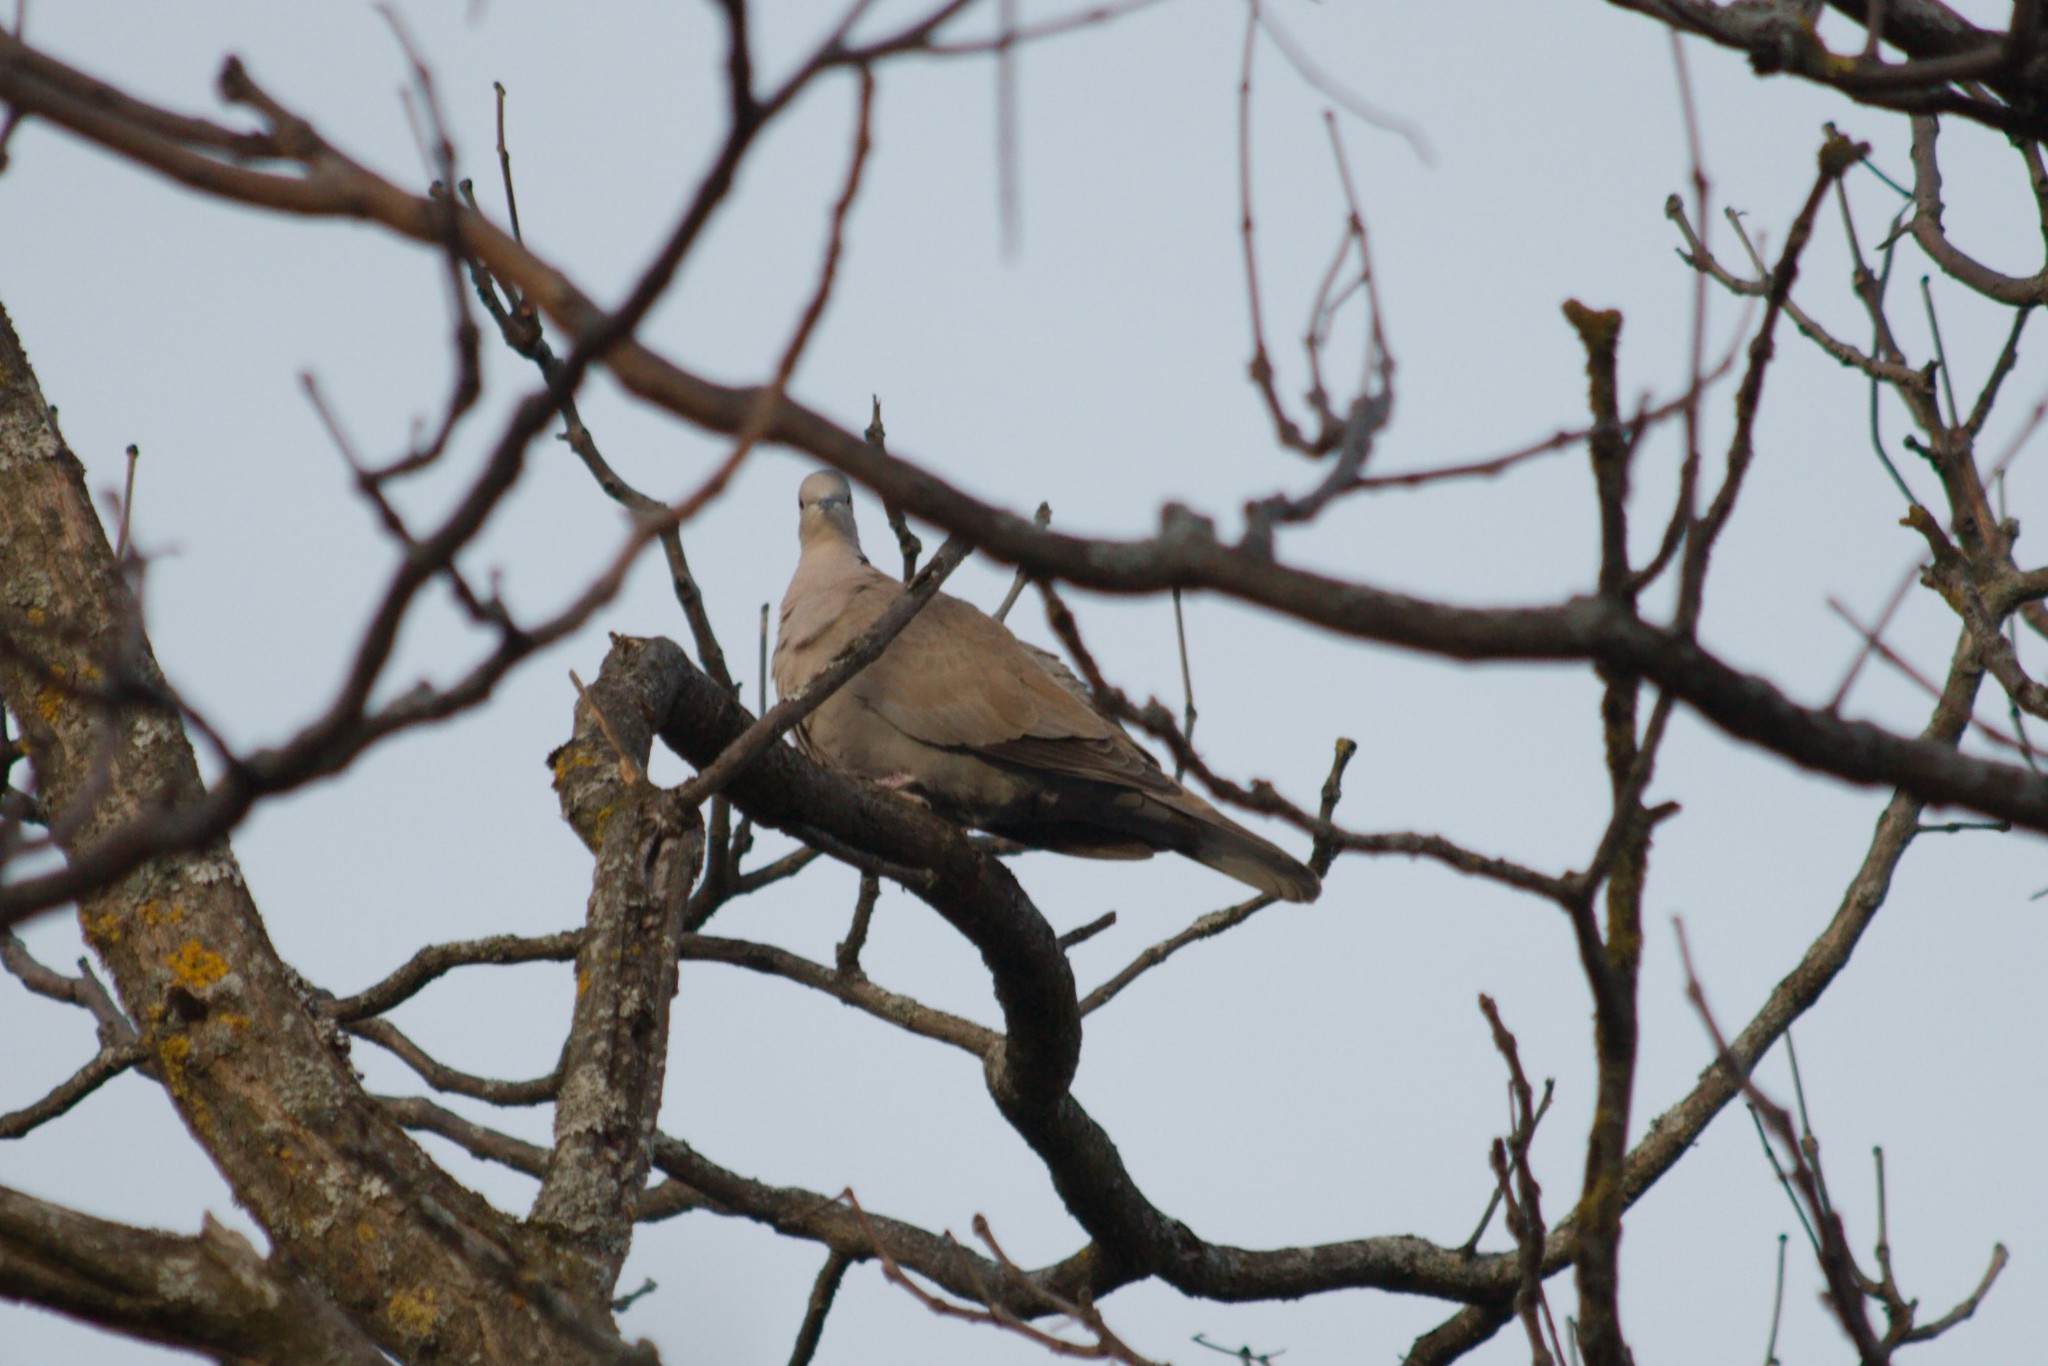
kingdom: Animalia
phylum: Chordata
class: Aves
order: Columbiformes
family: Columbidae
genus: Streptopelia
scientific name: Streptopelia decaocto
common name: Eurasian collared dove
